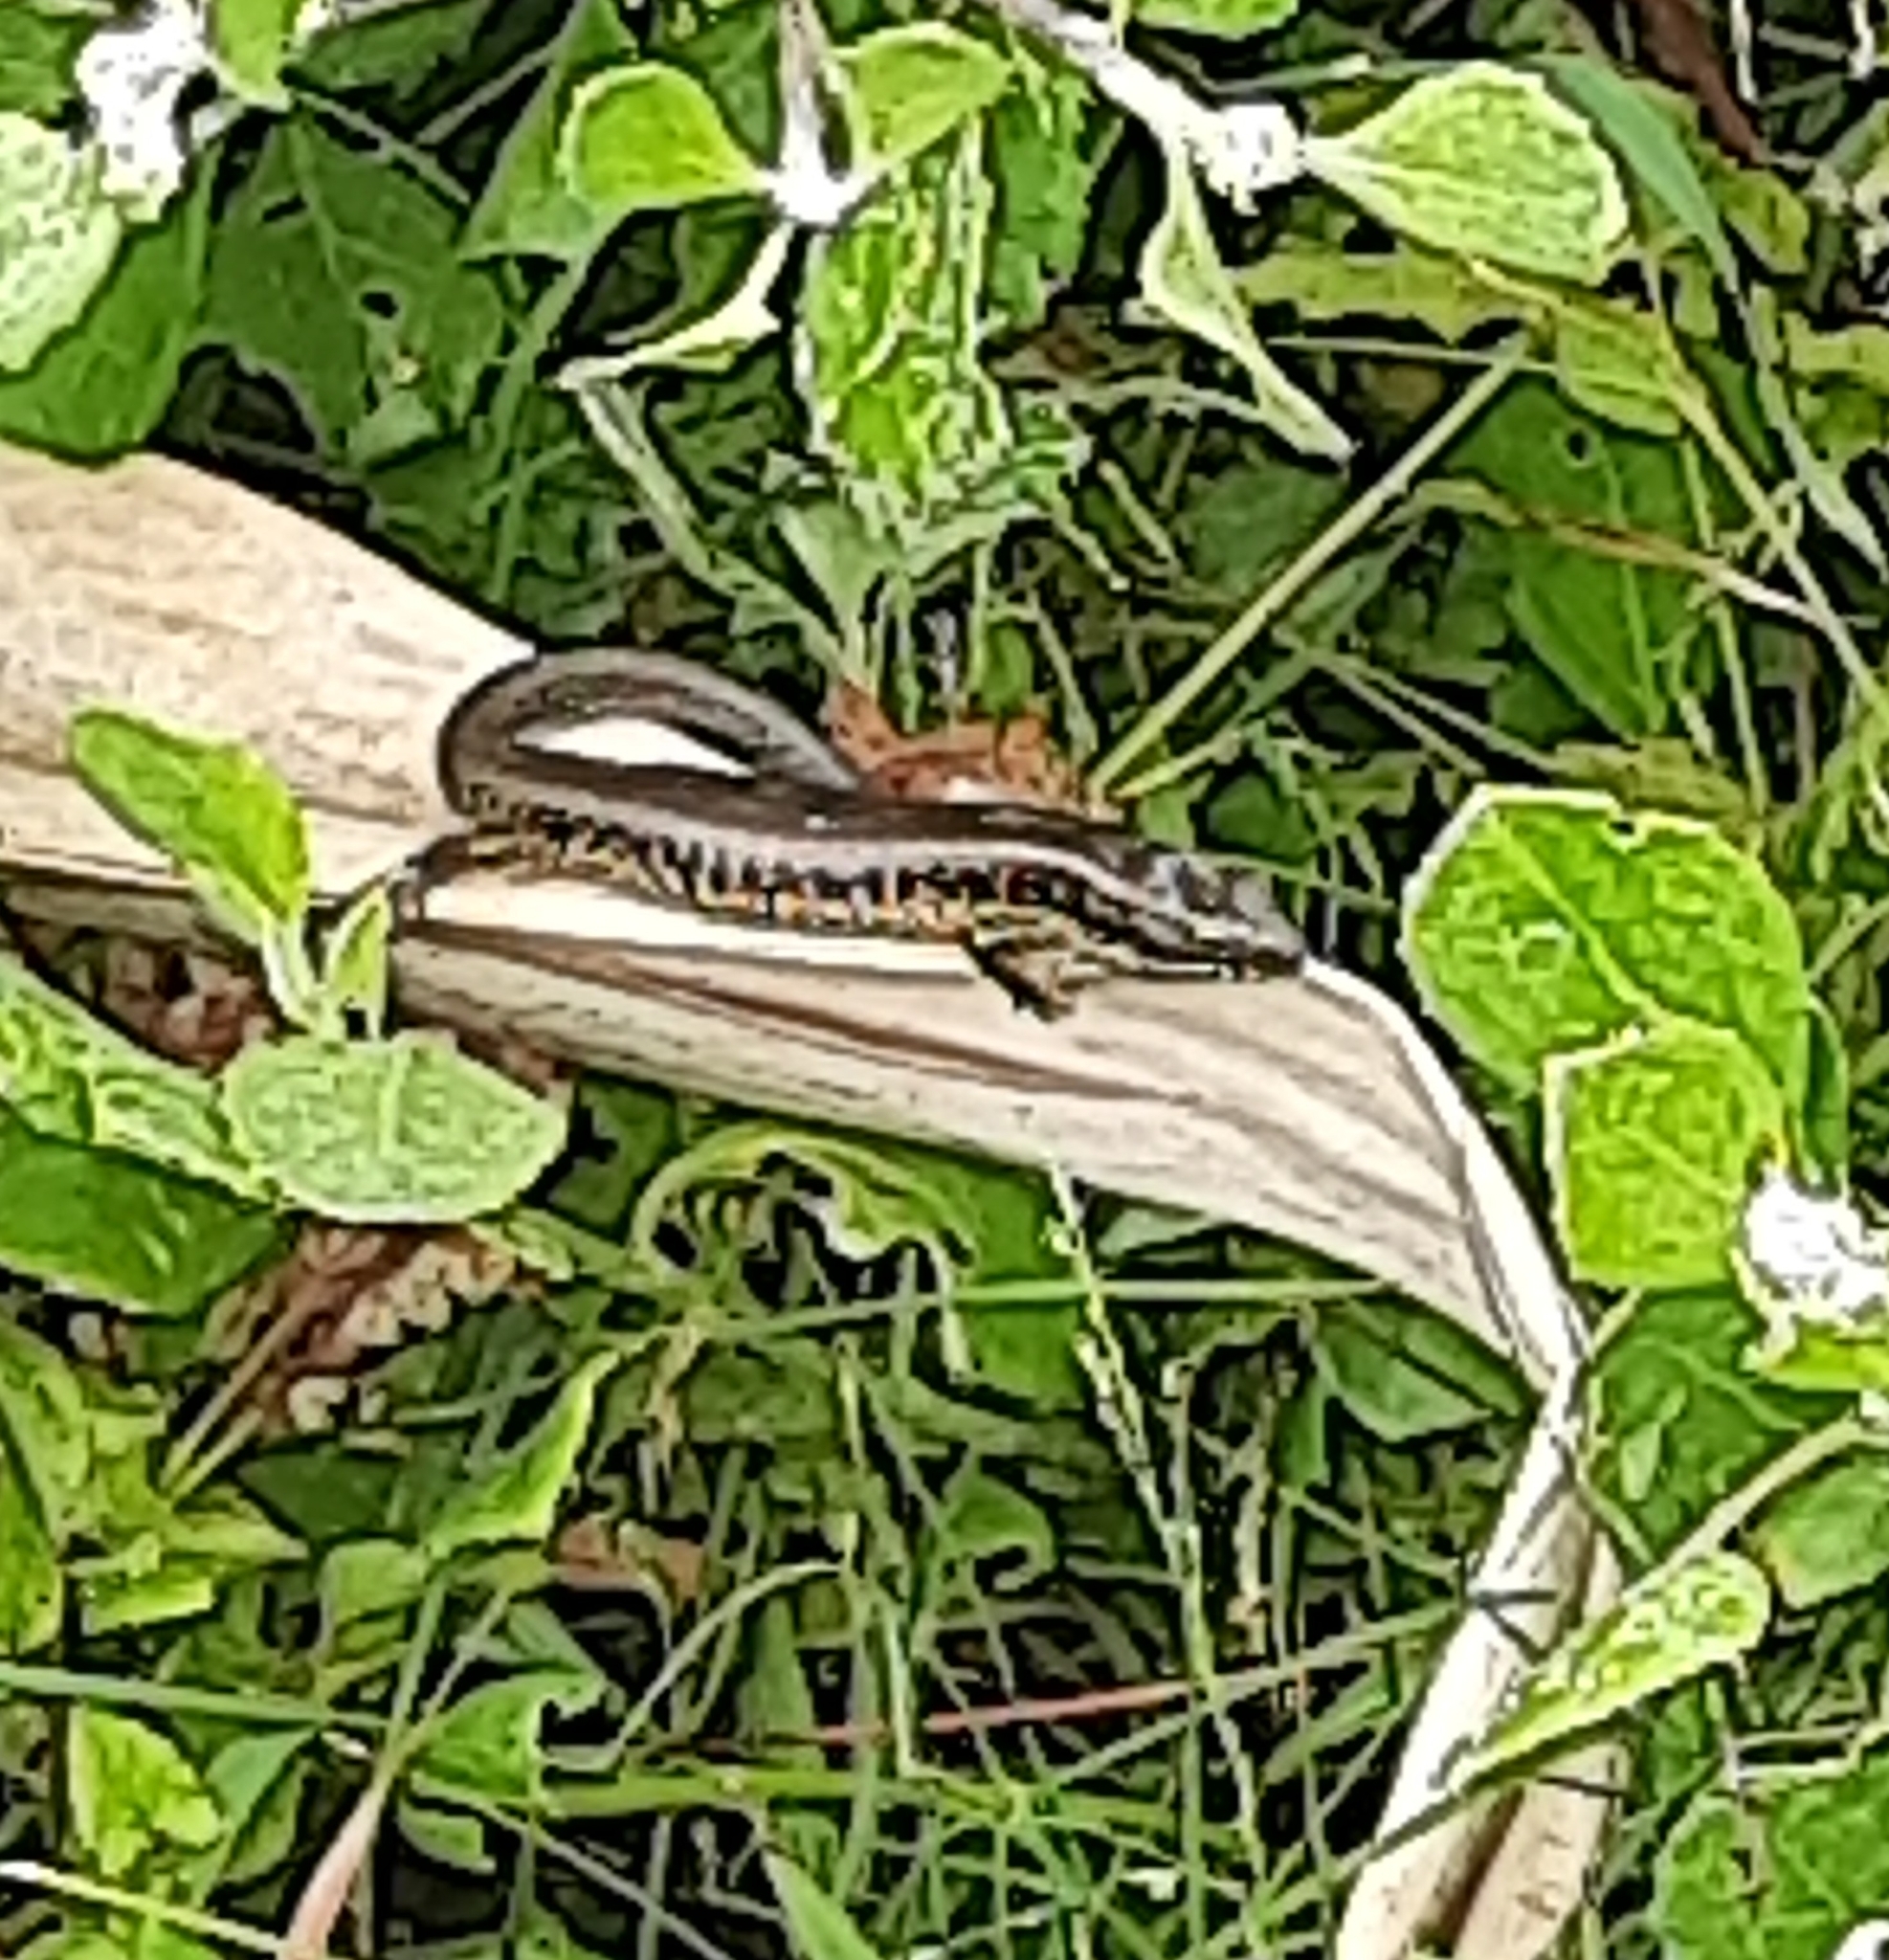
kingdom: Animalia
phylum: Chordata
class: Squamata
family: Scincidae
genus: Eulamprus
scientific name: Eulamprus quoyii
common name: Eastern water skink
